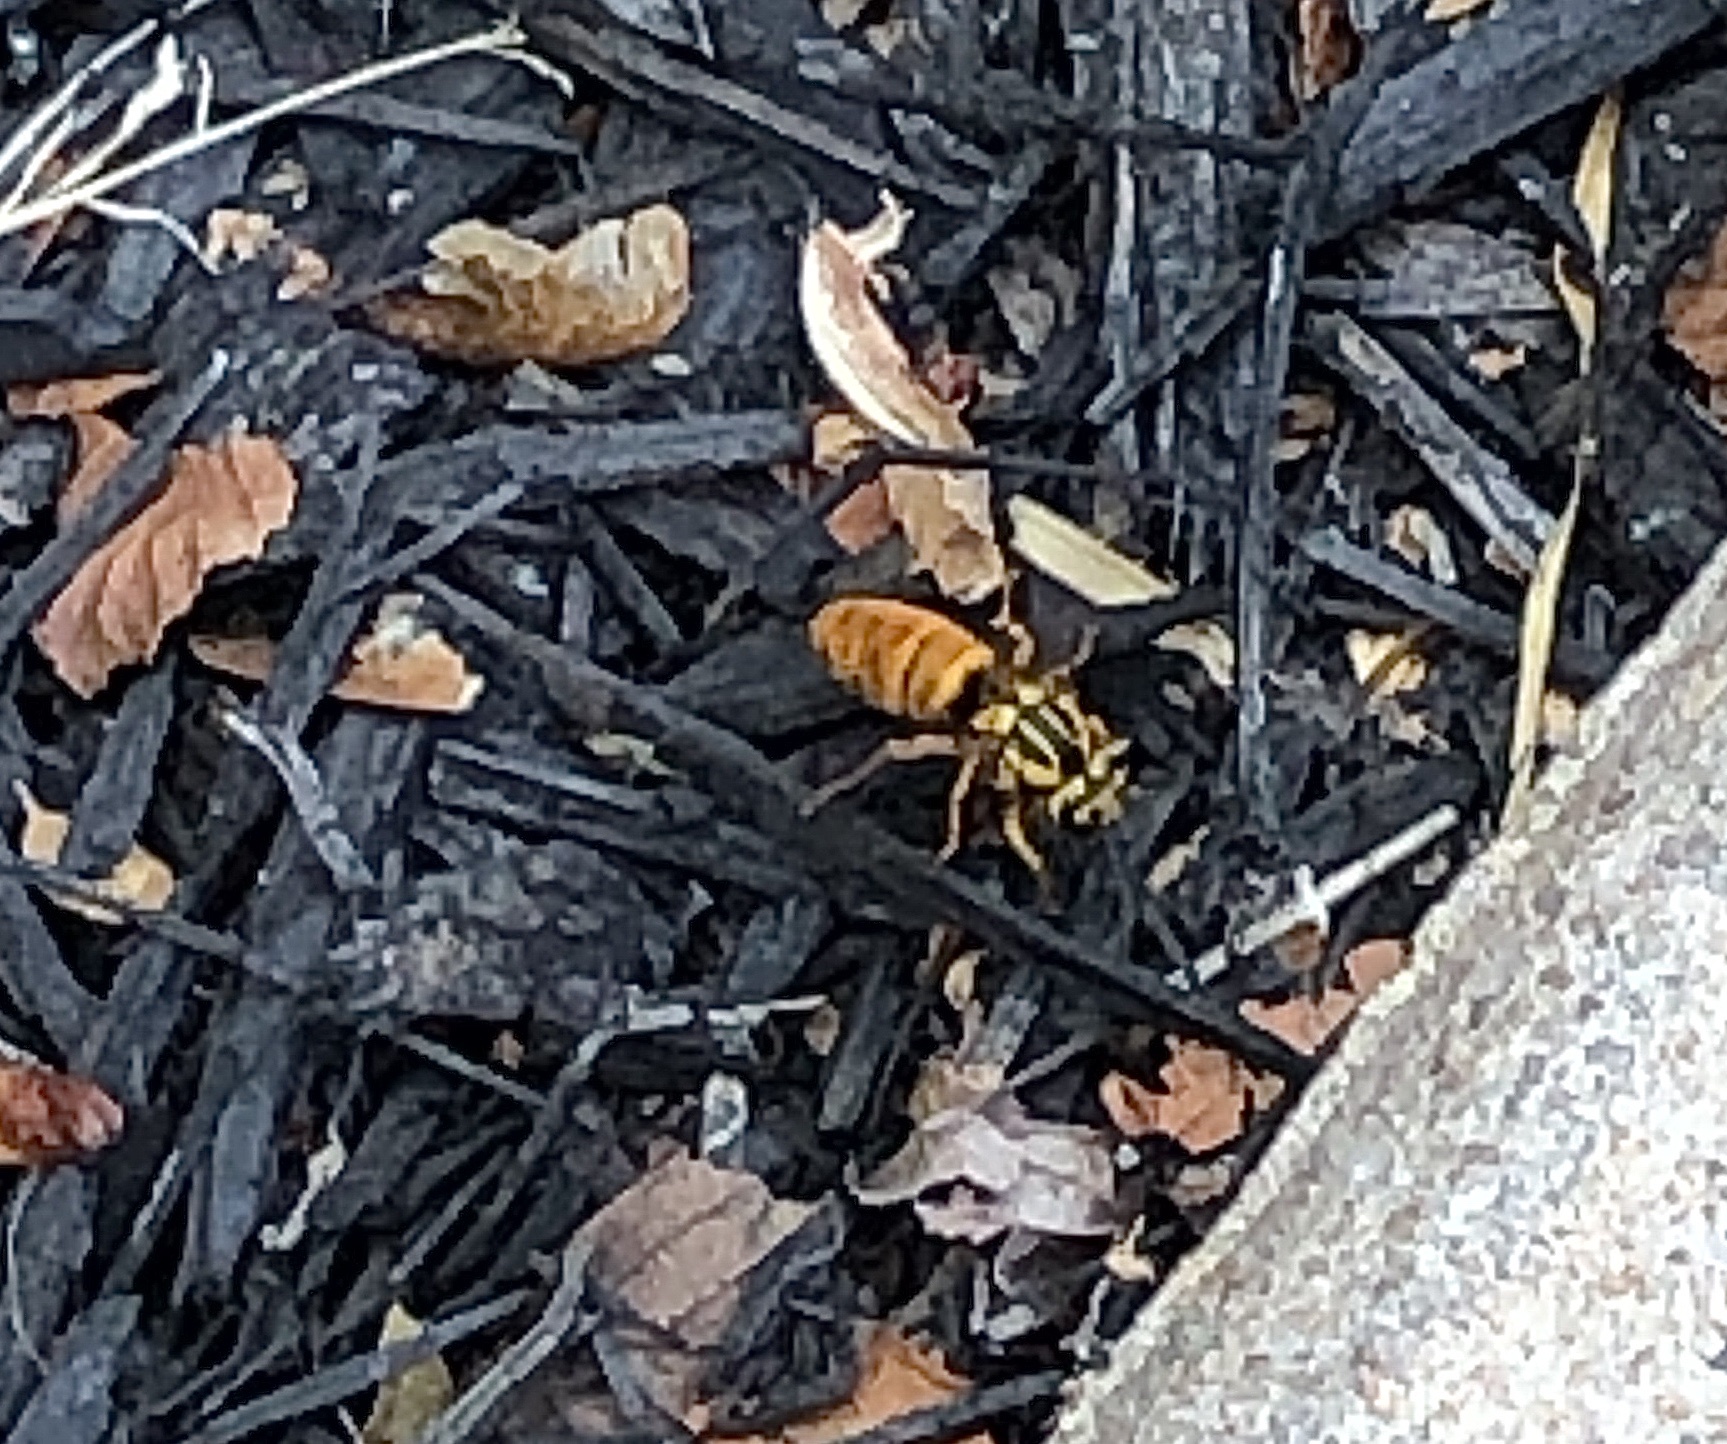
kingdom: Animalia
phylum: Arthropoda
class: Insecta
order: Hymenoptera
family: Vespidae
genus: Vespula
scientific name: Vespula squamosa
